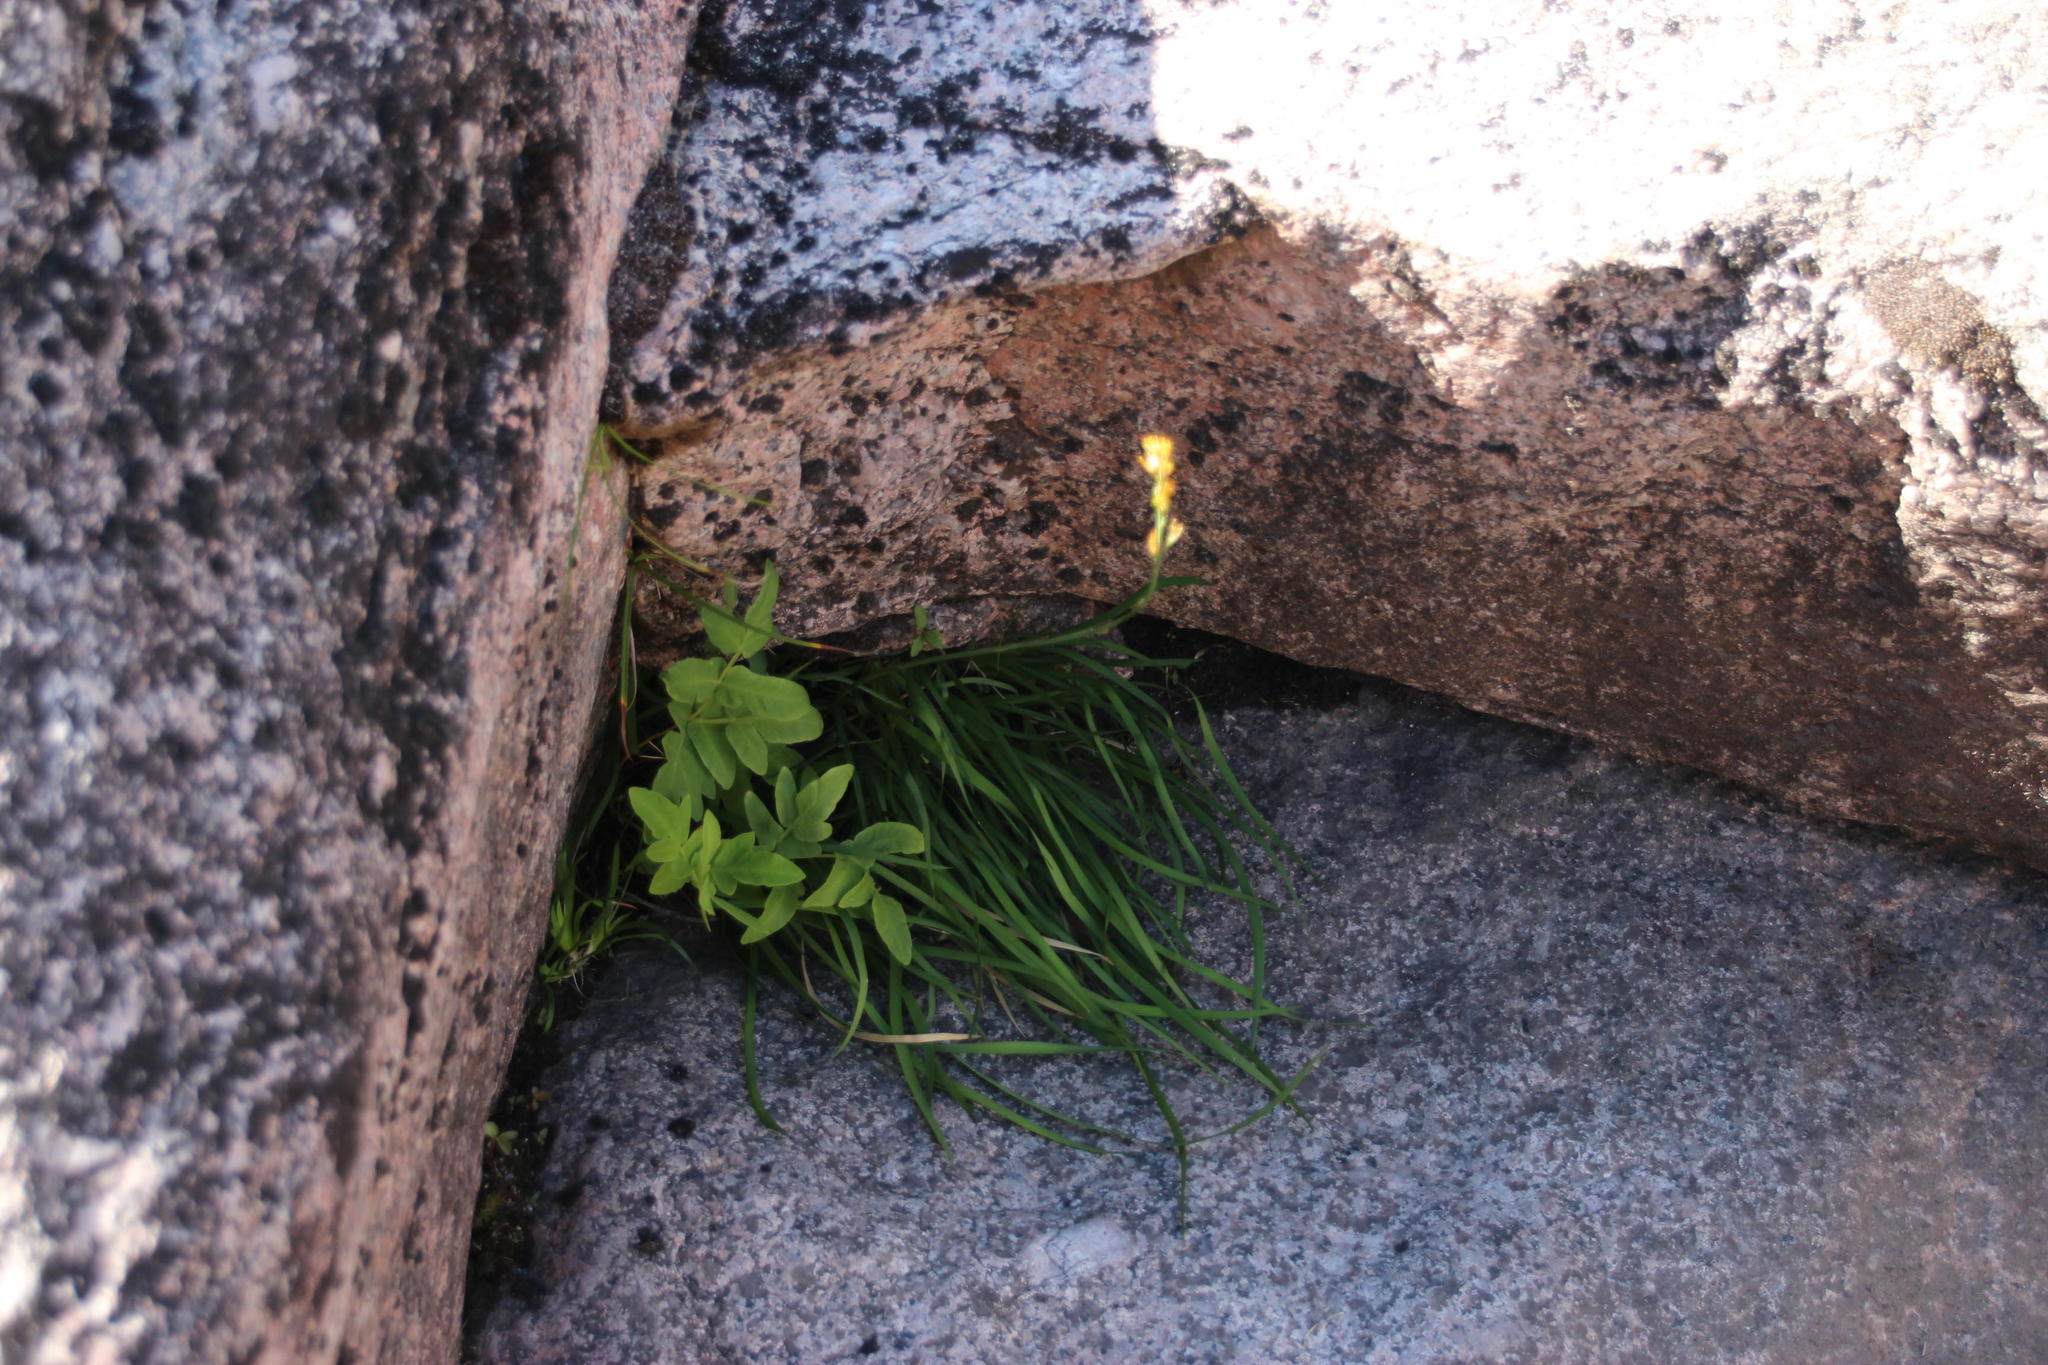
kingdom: Plantae
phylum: Tracheophyta
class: Liliopsida
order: Dioscoreales
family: Nartheciaceae
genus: Narthecium
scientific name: Narthecium ossifragum
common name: Bog asphodel
